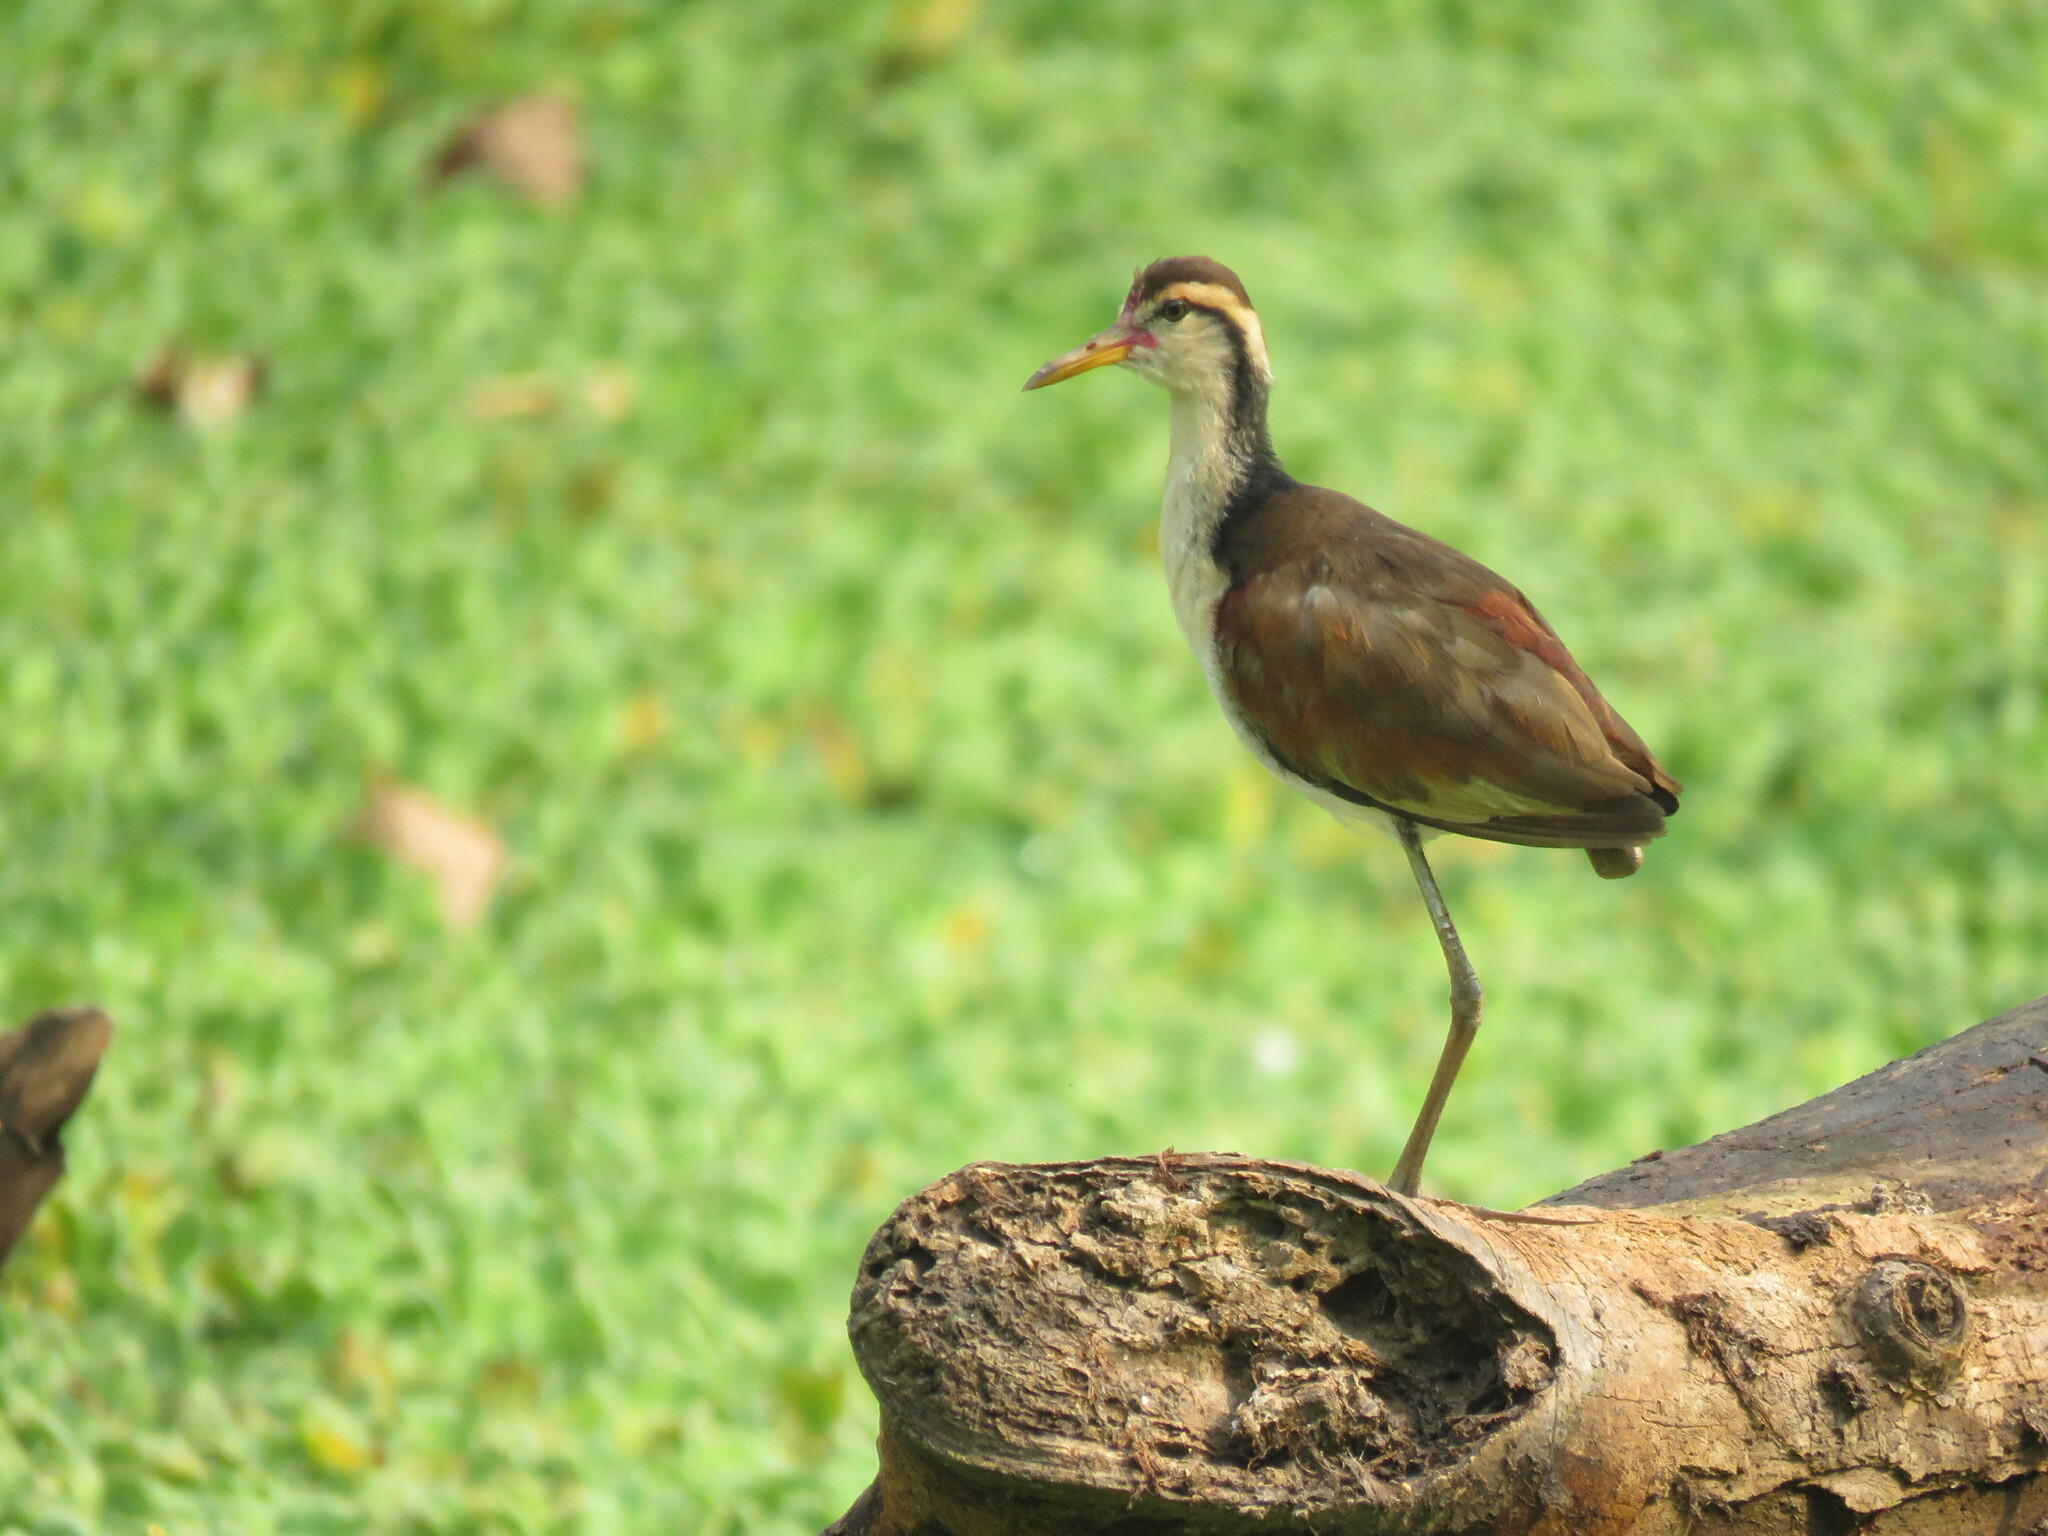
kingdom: Animalia
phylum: Chordata
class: Aves
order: Charadriiformes
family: Jacanidae
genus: Jacana
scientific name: Jacana jacana
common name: Wattled jacana
